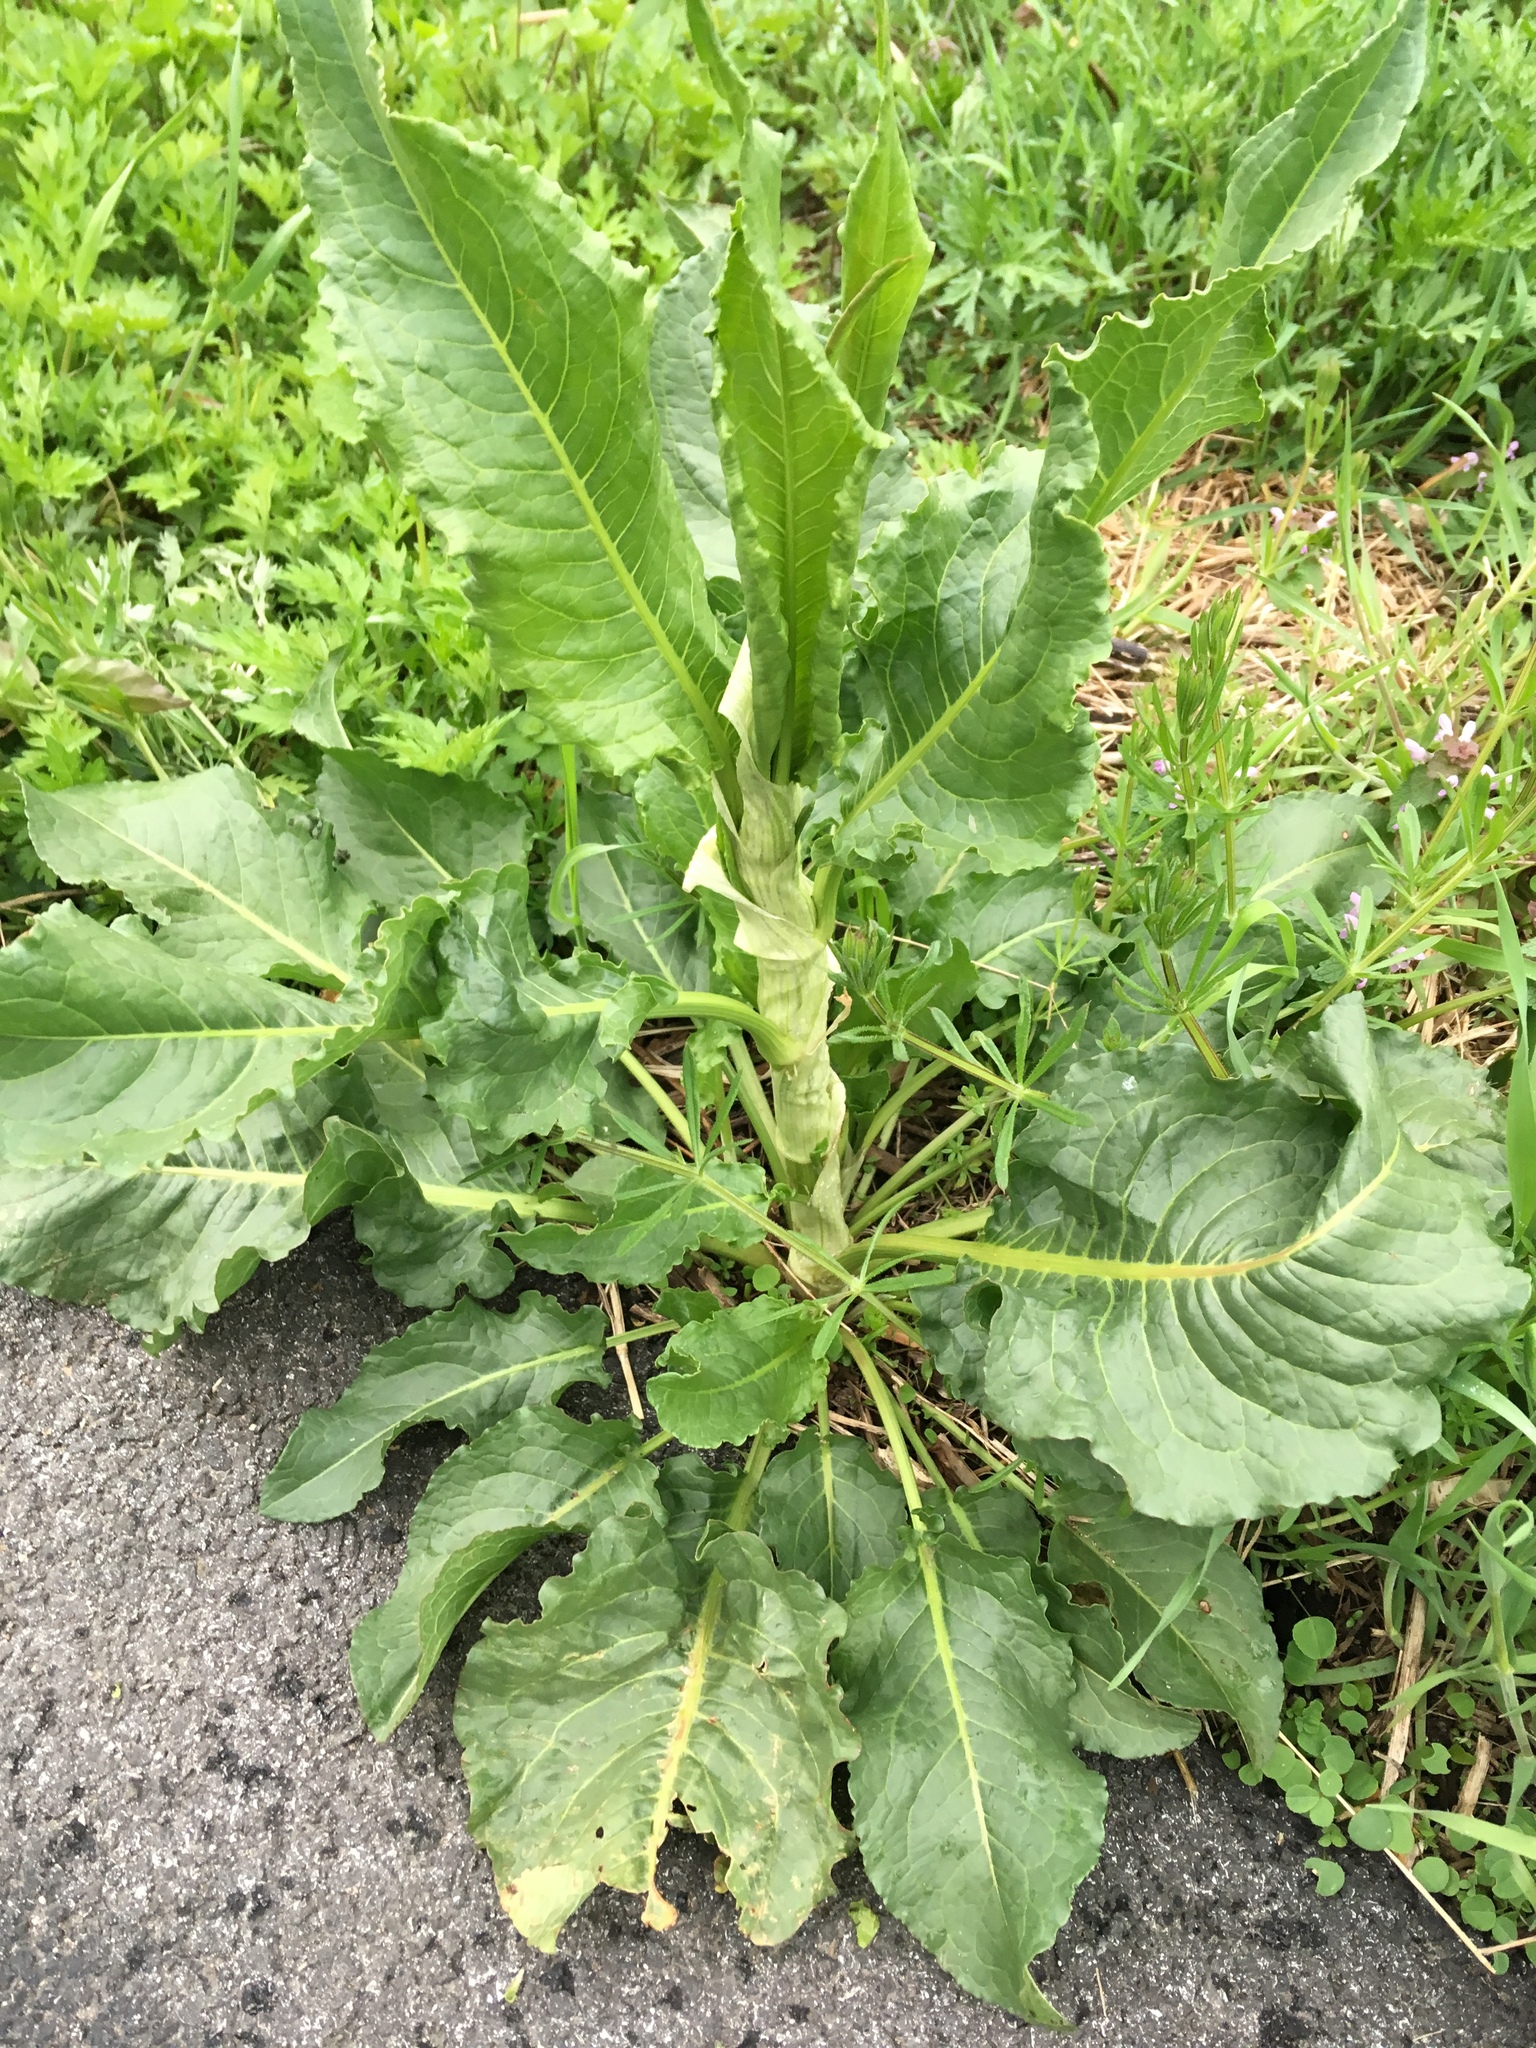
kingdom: Plantae
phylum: Tracheophyta
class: Magnoliopsida
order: Caryophyllales
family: Polygonaceae
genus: Rumex
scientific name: Rumex patientia
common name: Patience dock
